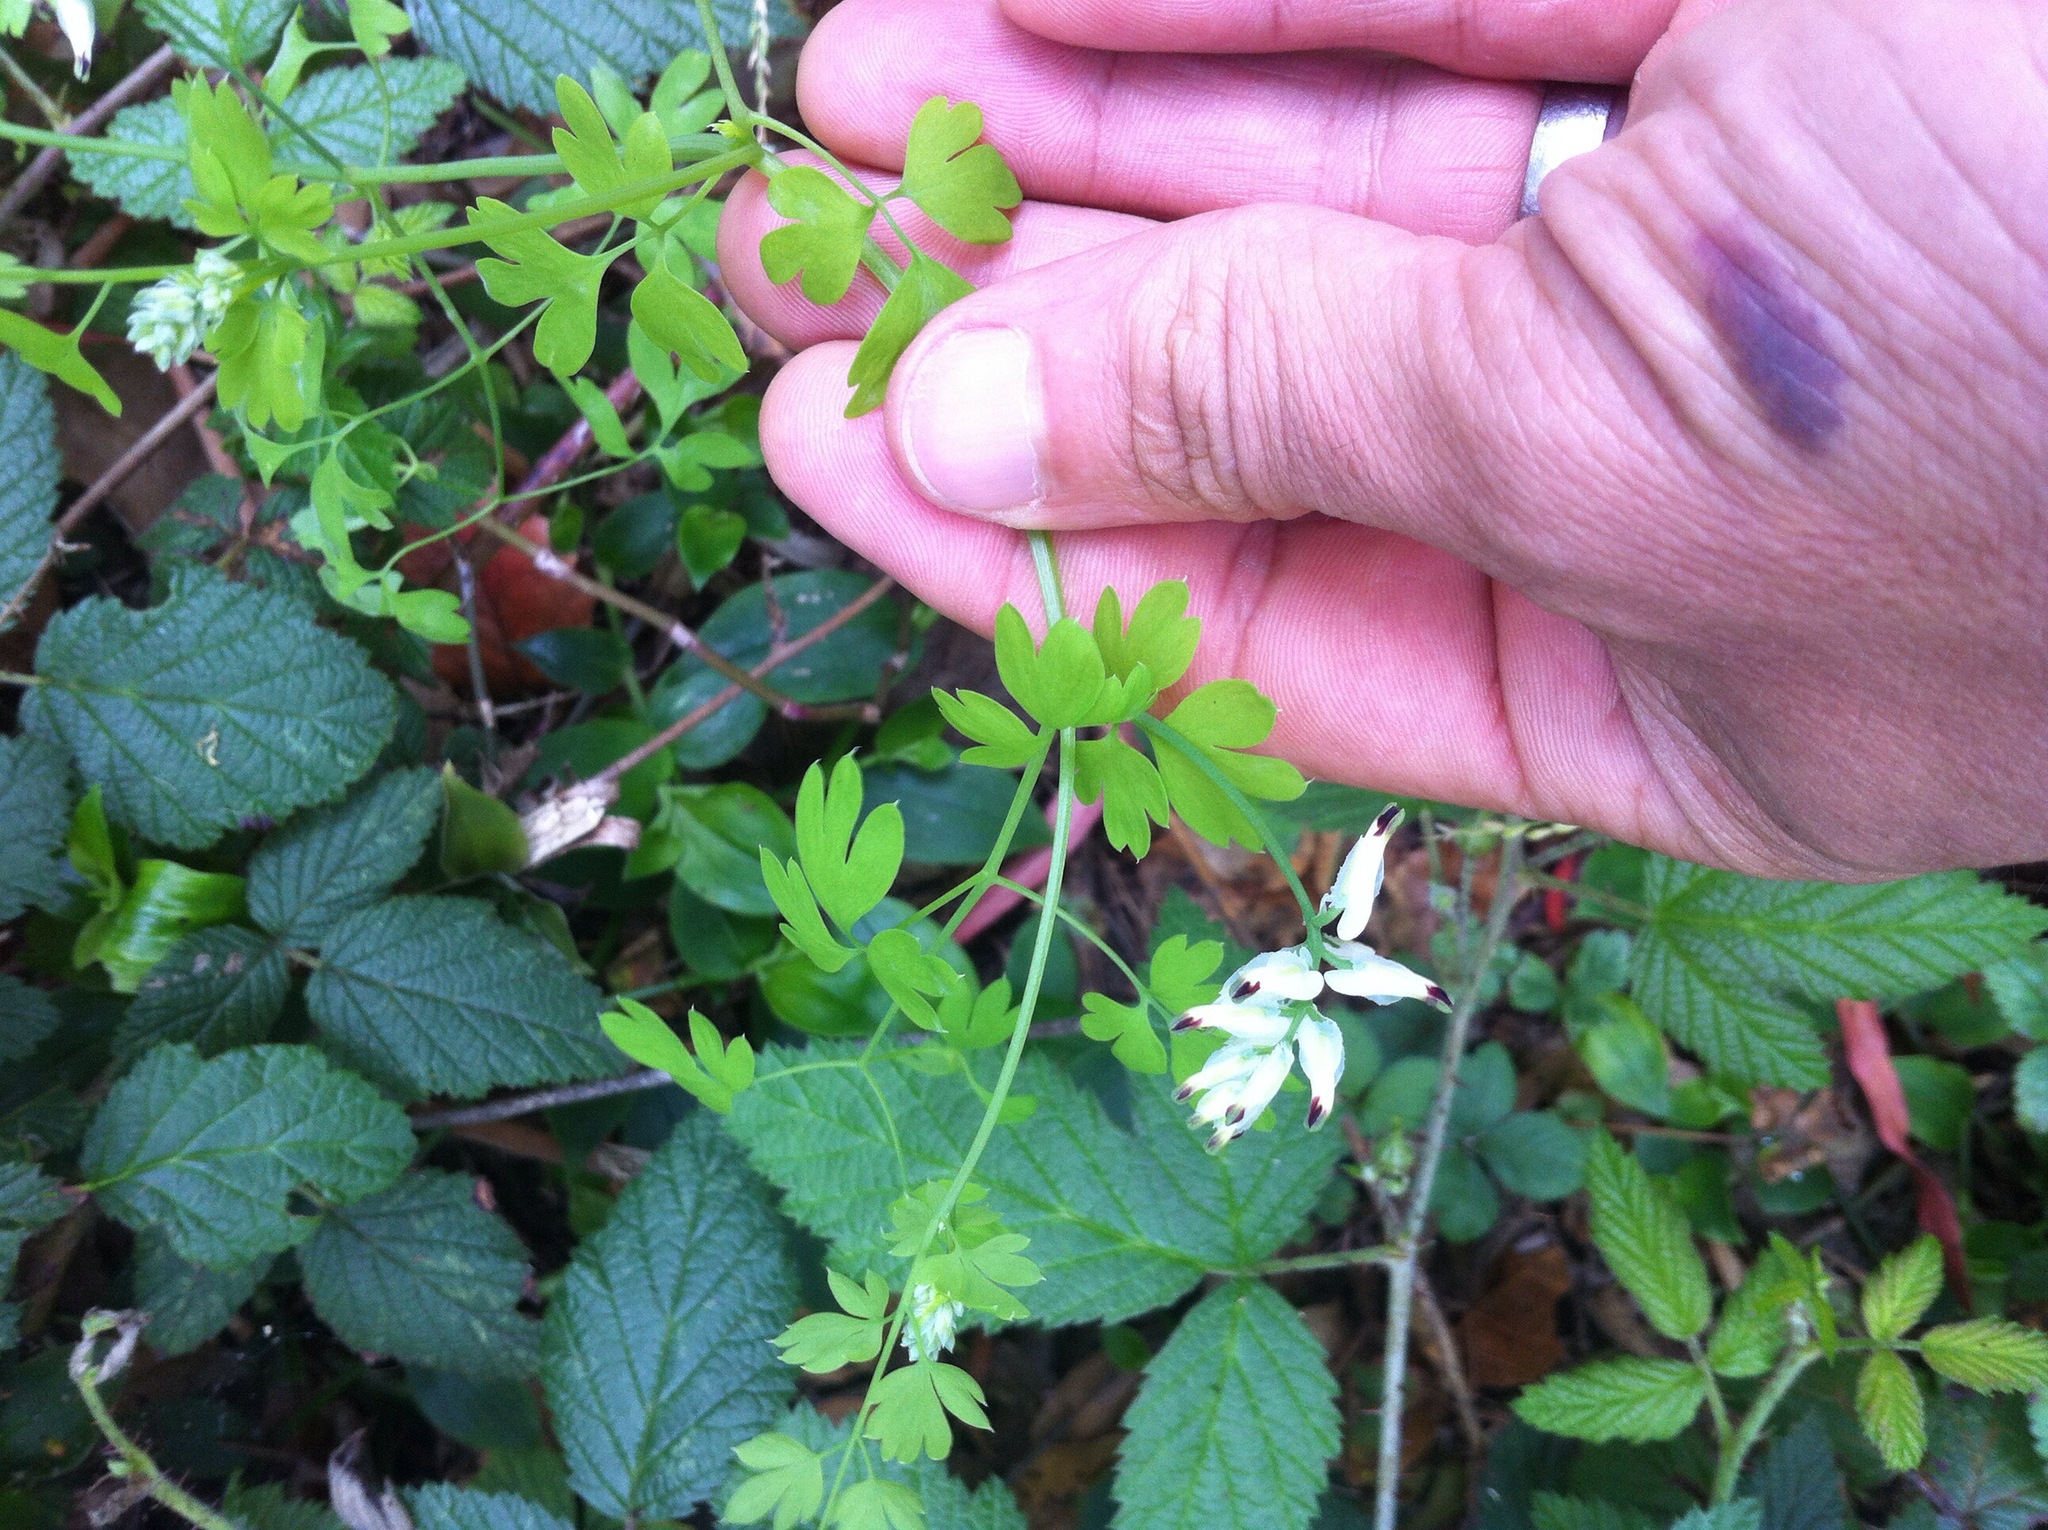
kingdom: Plantae
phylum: Tracheophyta
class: Magnoliopsida
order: Ranunculales
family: Papaveraceae
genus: Fumaria
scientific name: Fumaria capreolata
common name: White ramping-fumitory
